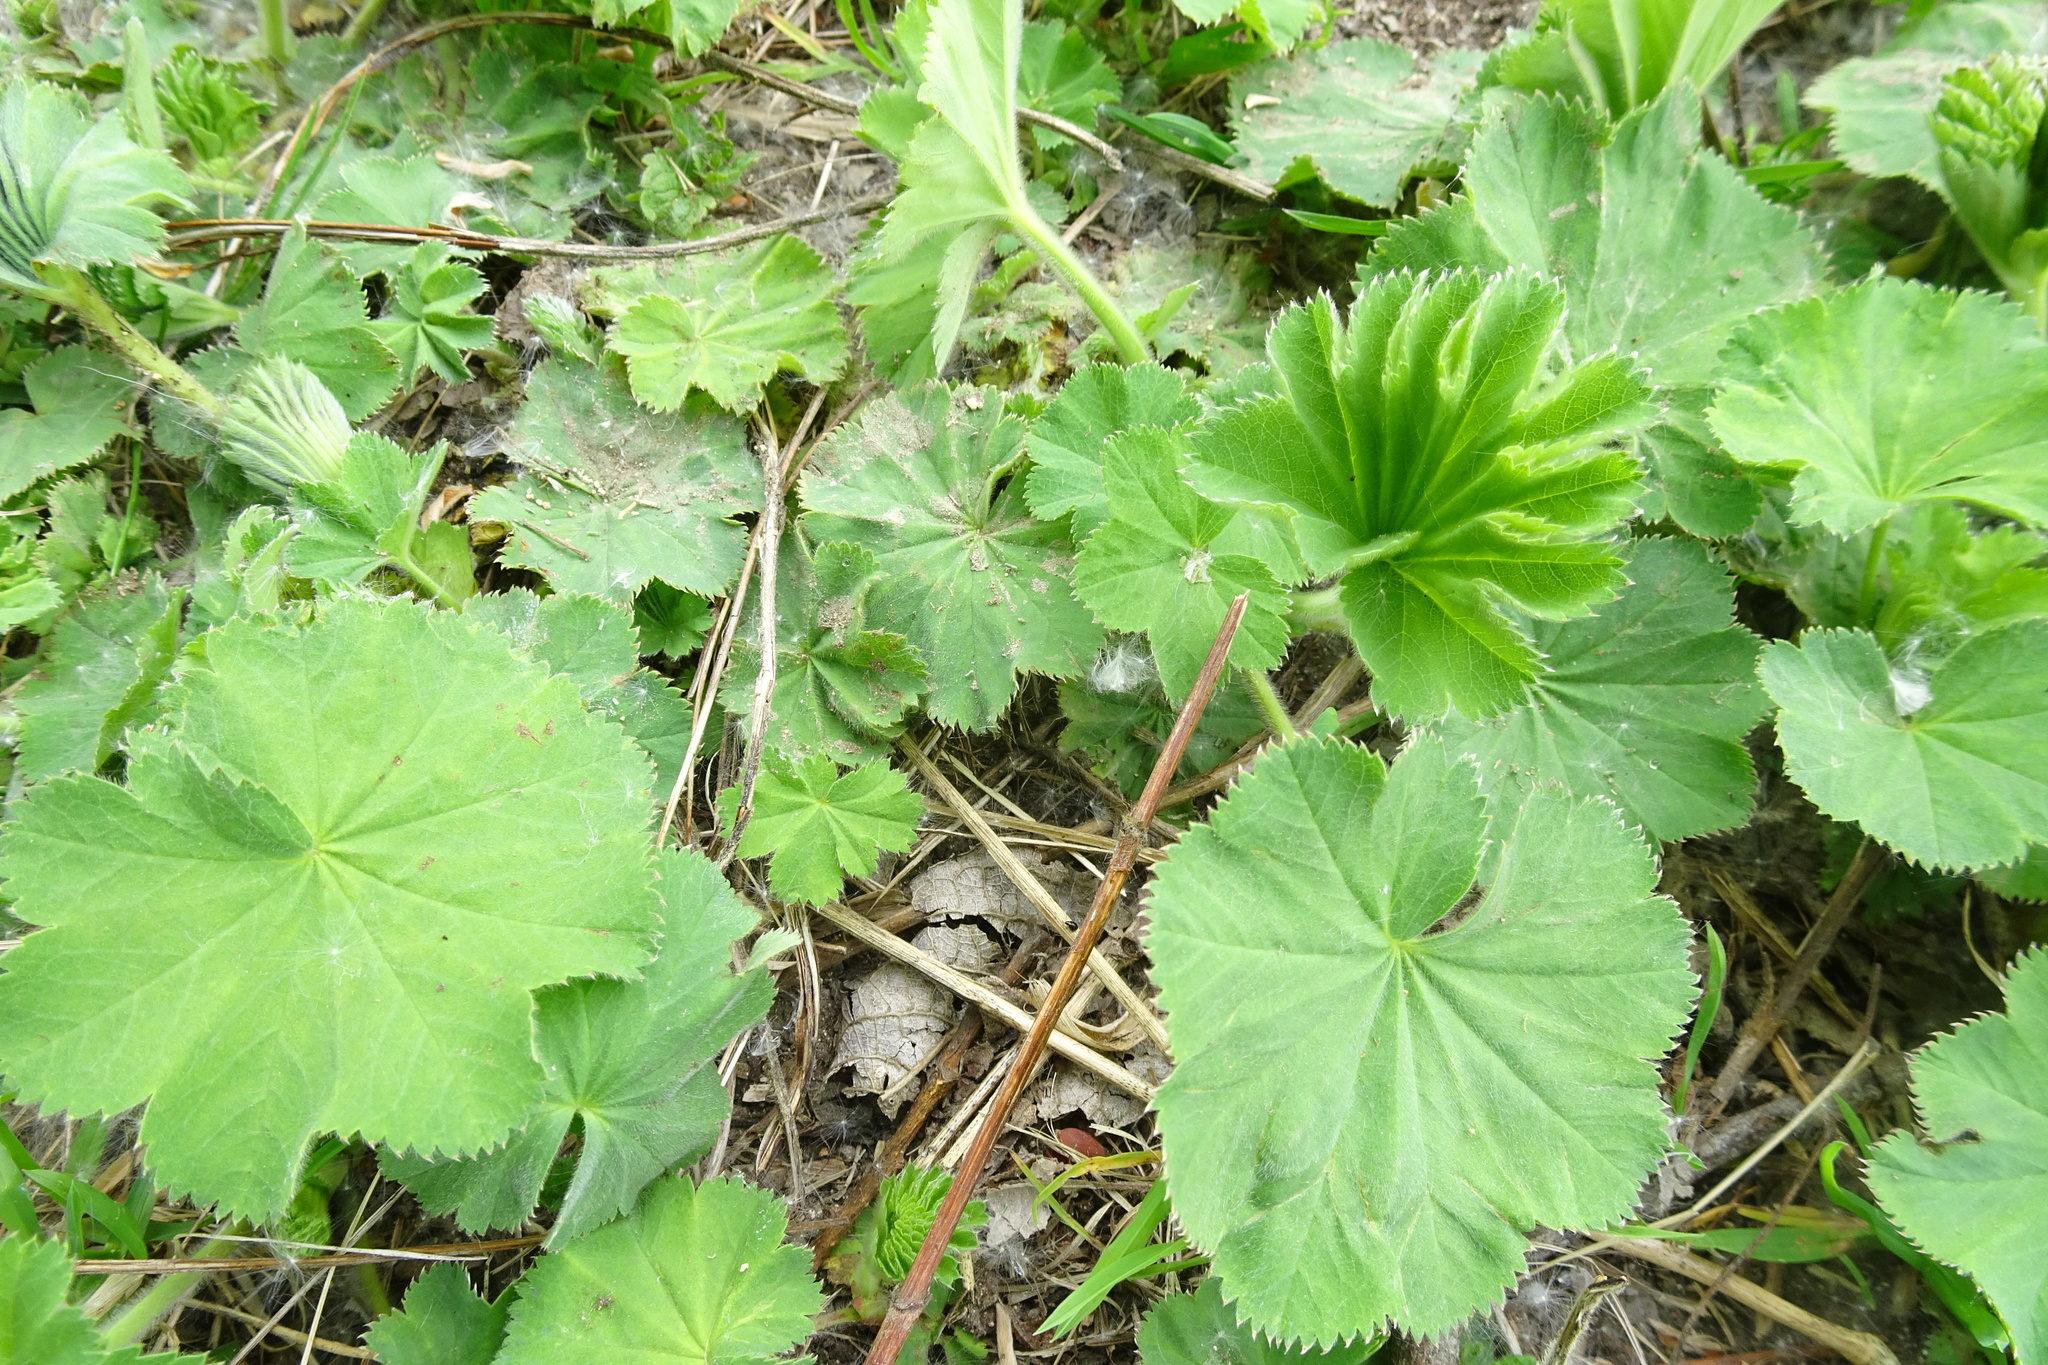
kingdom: Plantae
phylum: Tracheophyta
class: Magnoliopsida
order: Rosales
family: Rosaceae
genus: Alchemilla
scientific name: Alchemilla
